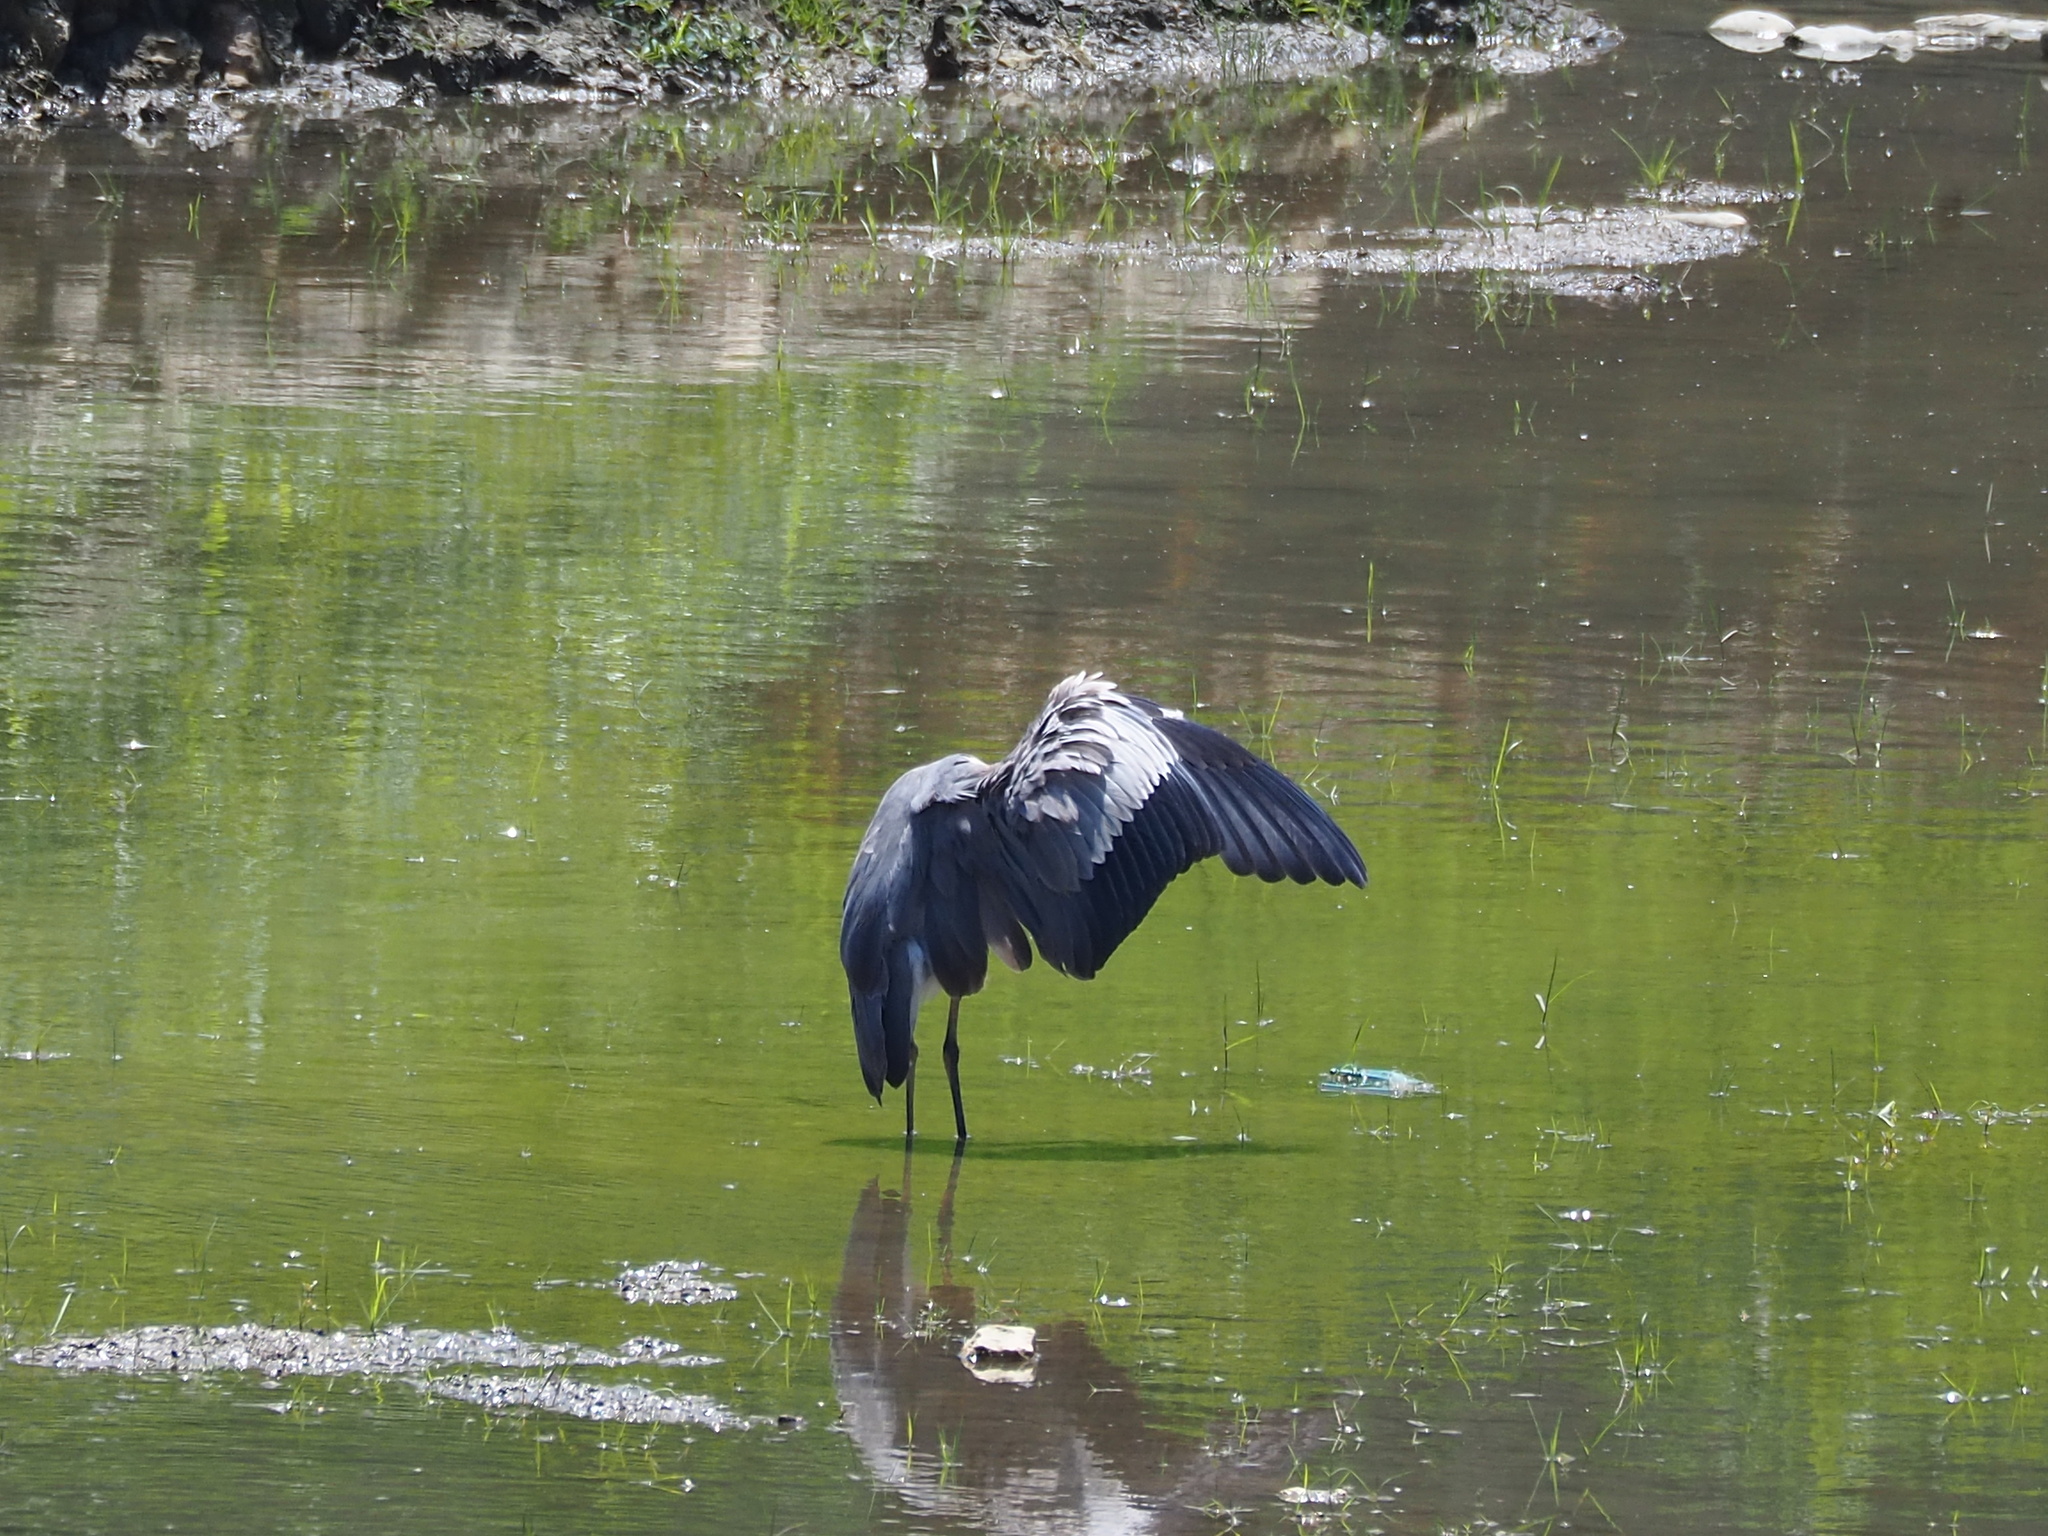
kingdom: Animalia
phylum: Chordata
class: Aves
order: Pelecaniformes
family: Ardeidae
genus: Ardea
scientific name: Ardea cinerea
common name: Grey heron
